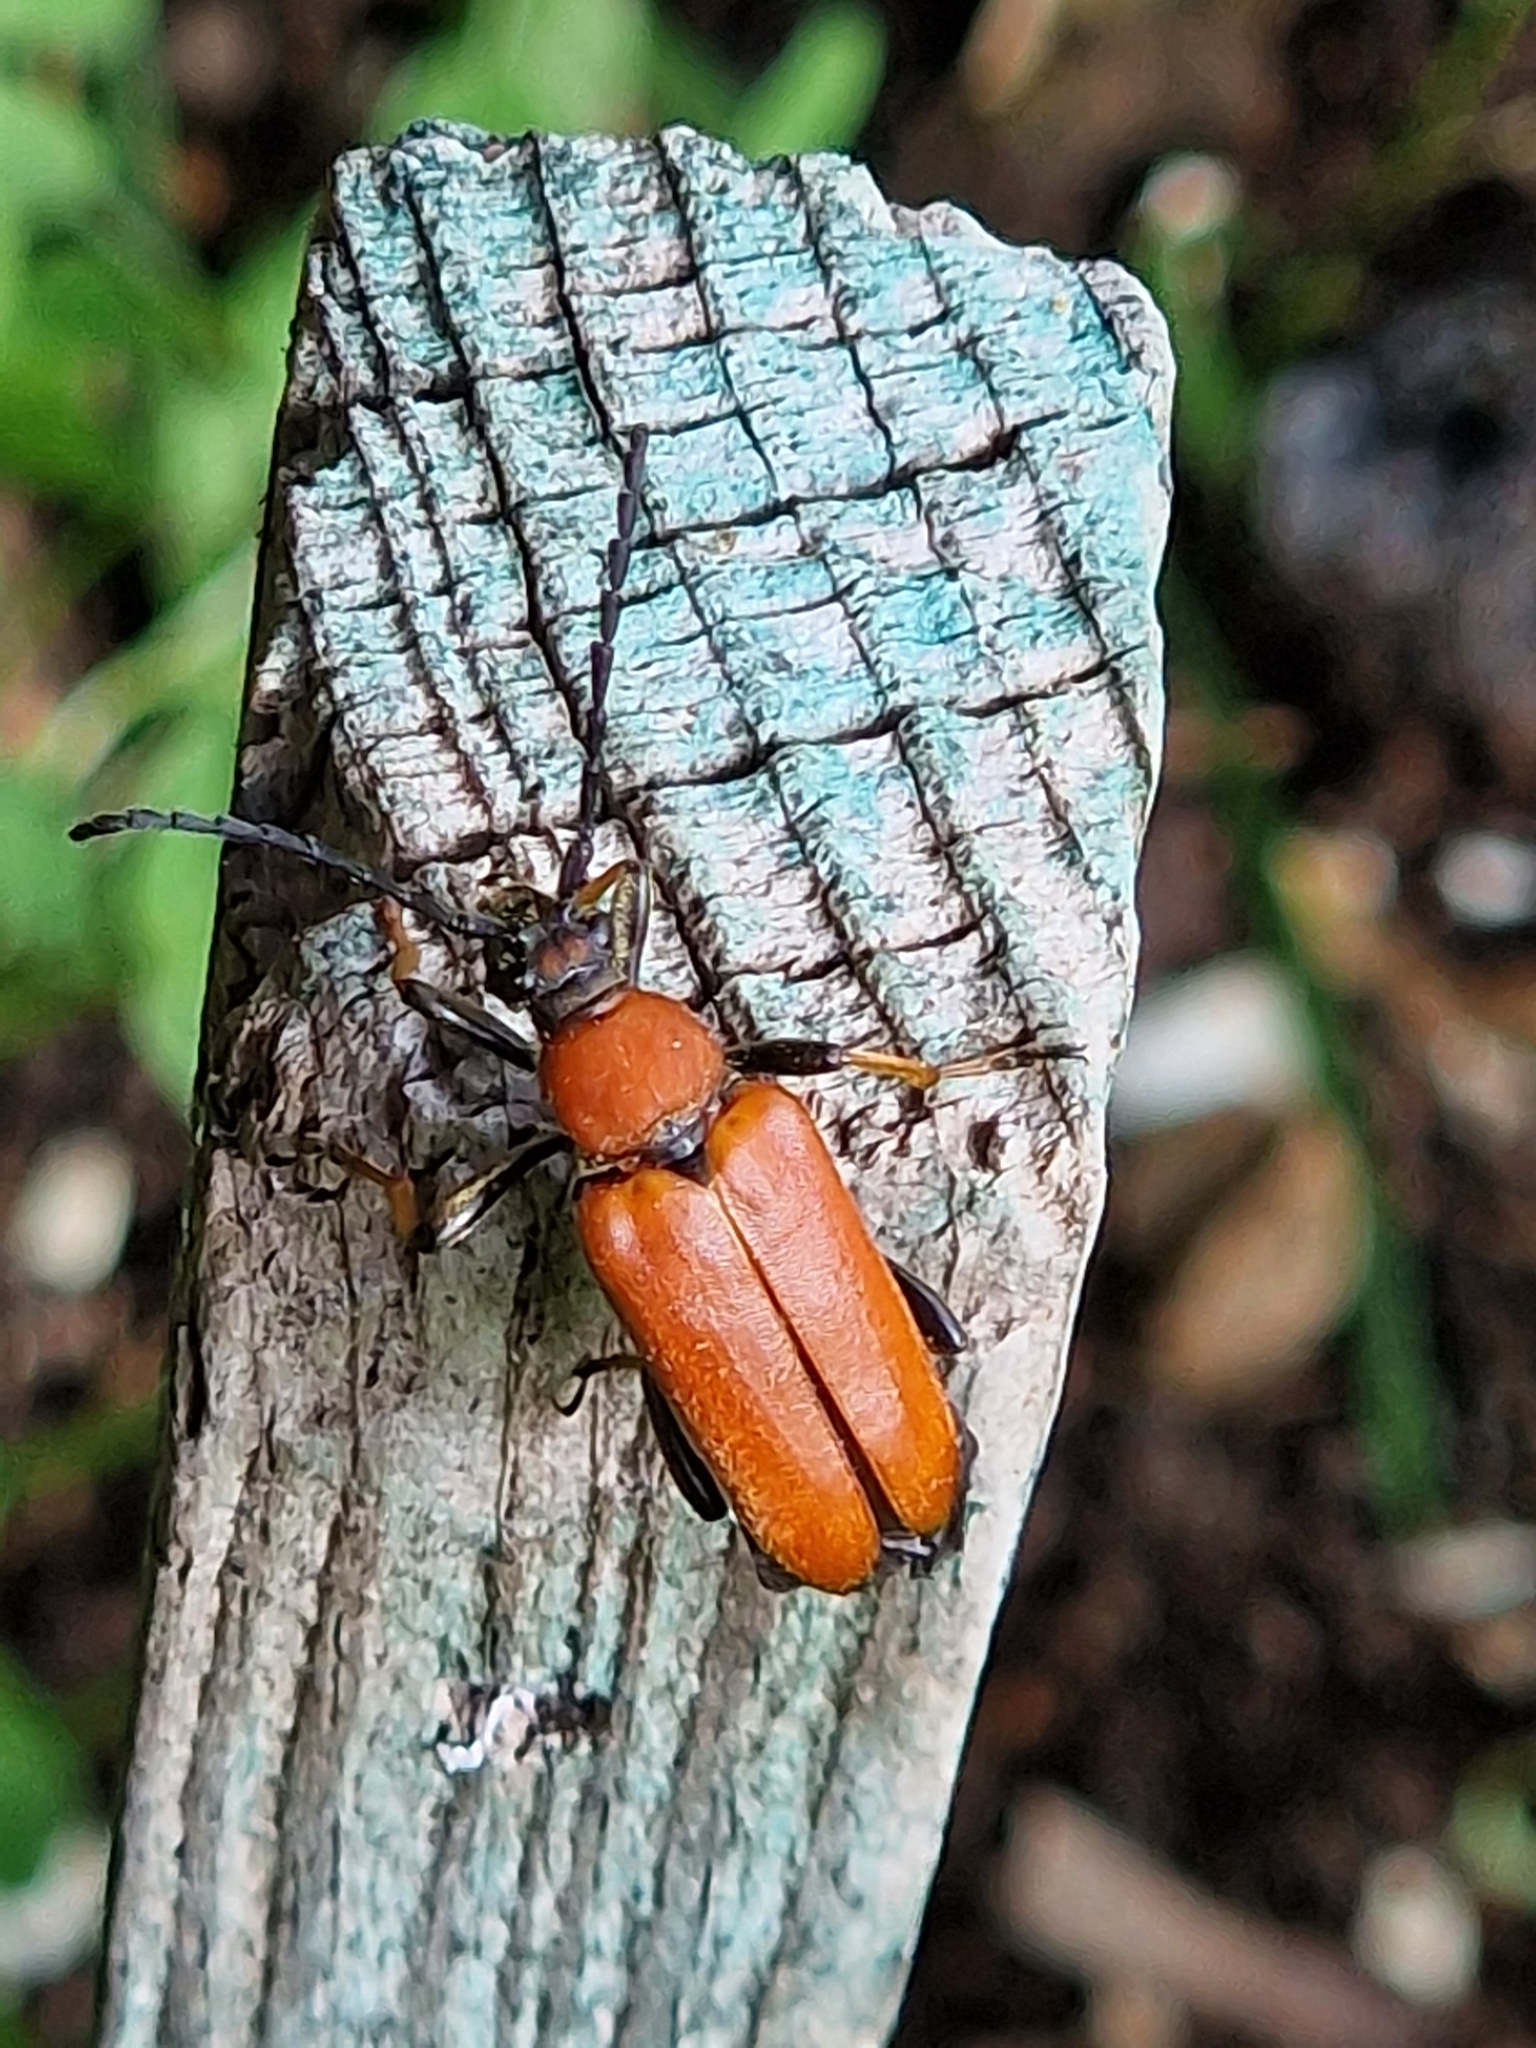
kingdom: Animalia
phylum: Arthropoda
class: Insecta
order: Coleoptera
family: Cerambycidae
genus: Stictoleptura
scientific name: Stictoleptura rubra
